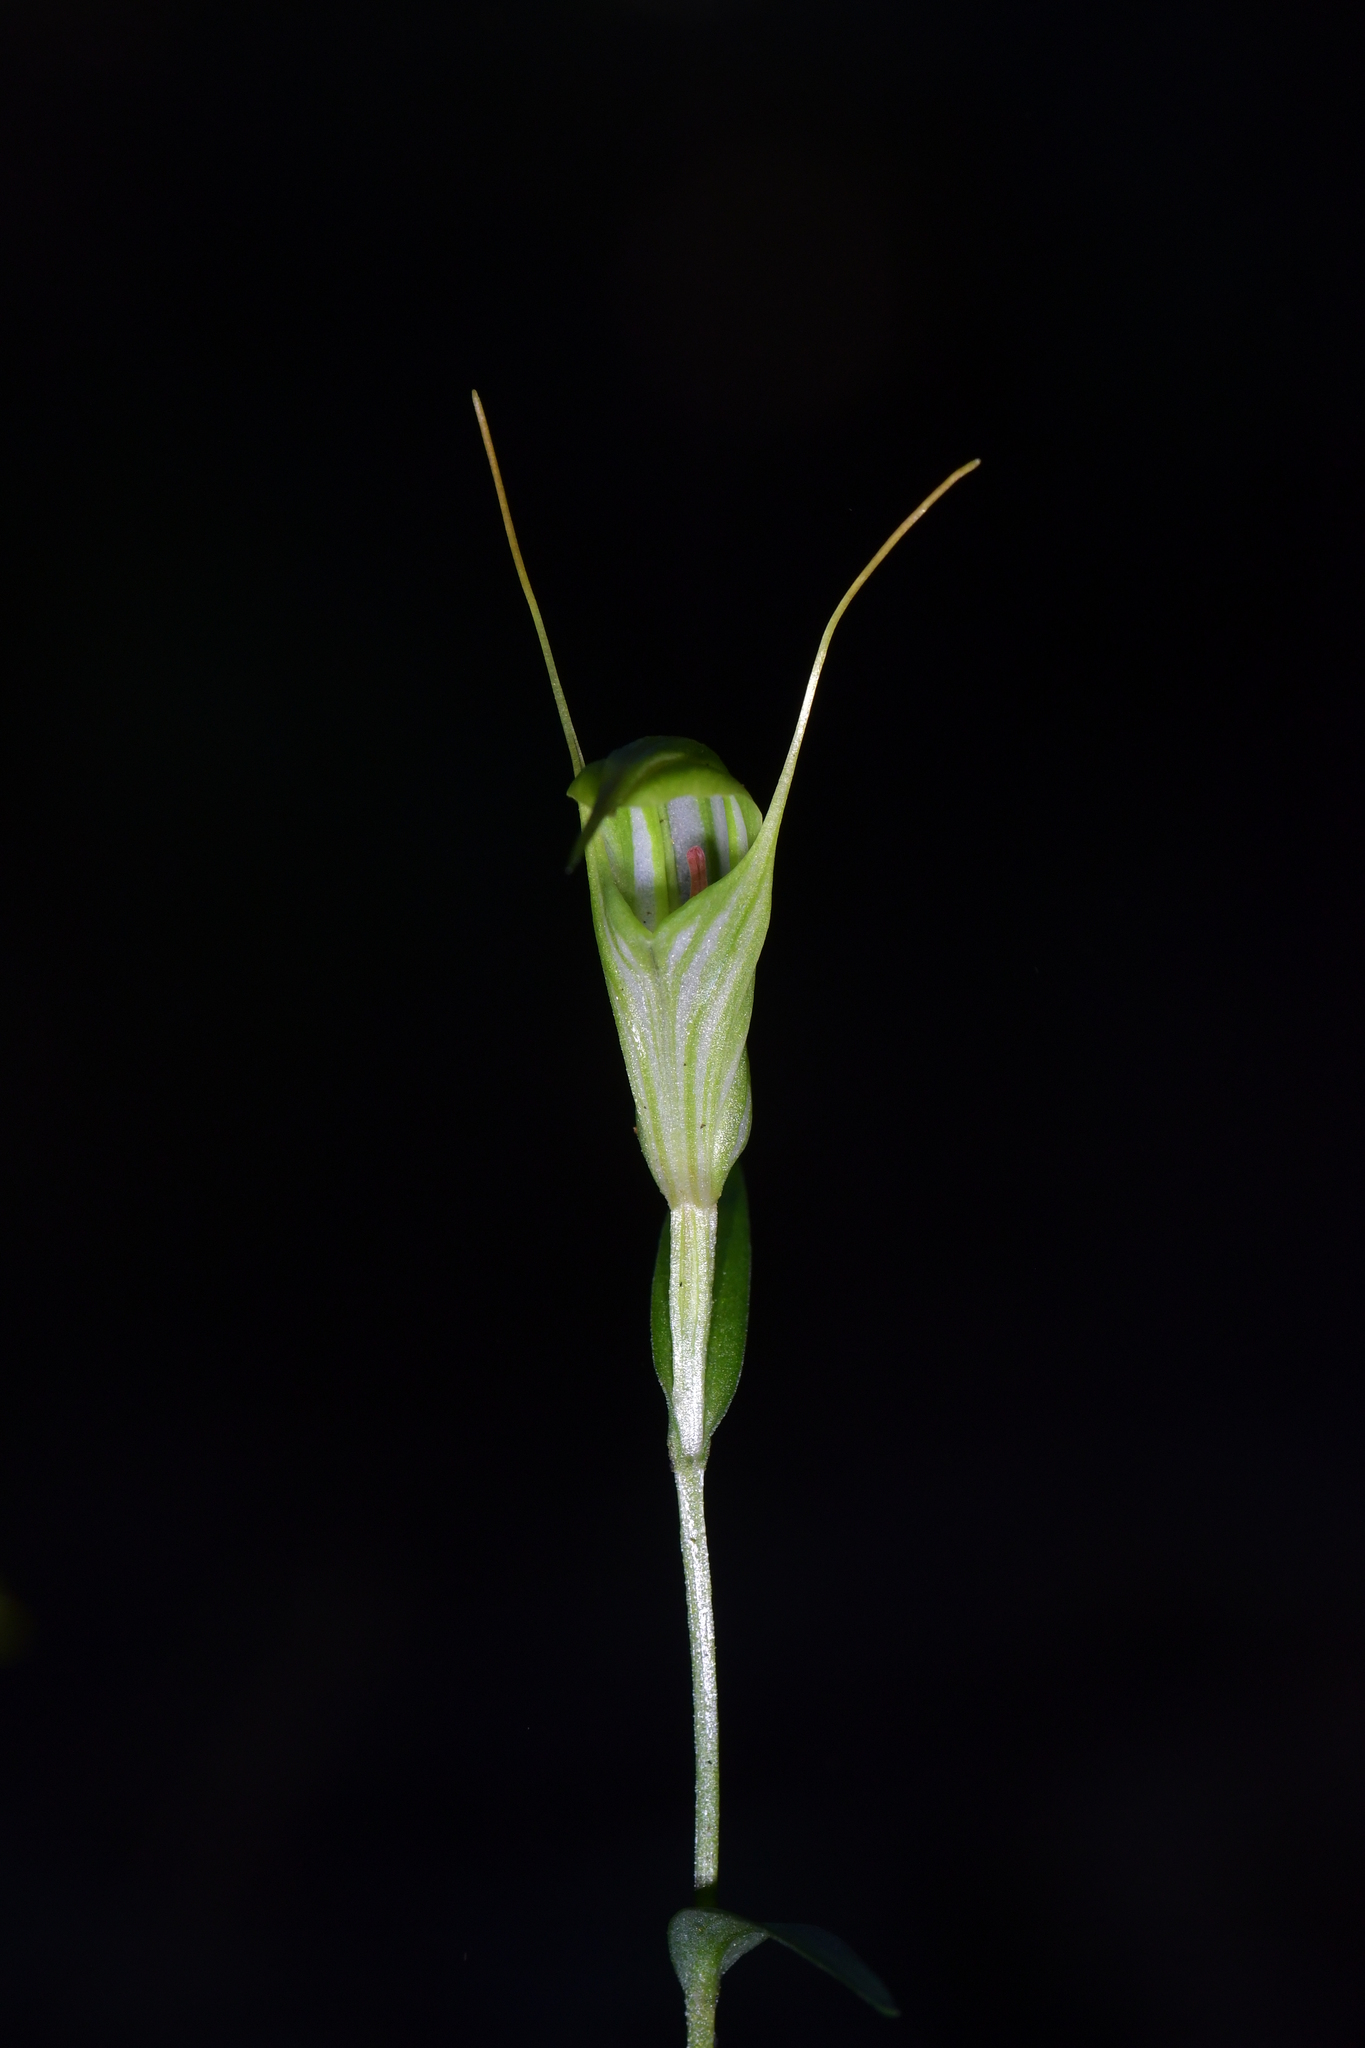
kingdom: Plantae
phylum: Tracheophyta
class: Liliopsida
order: Asparagales
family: Orchidaceae
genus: Pterostylis
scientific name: Pterostylis alobula
